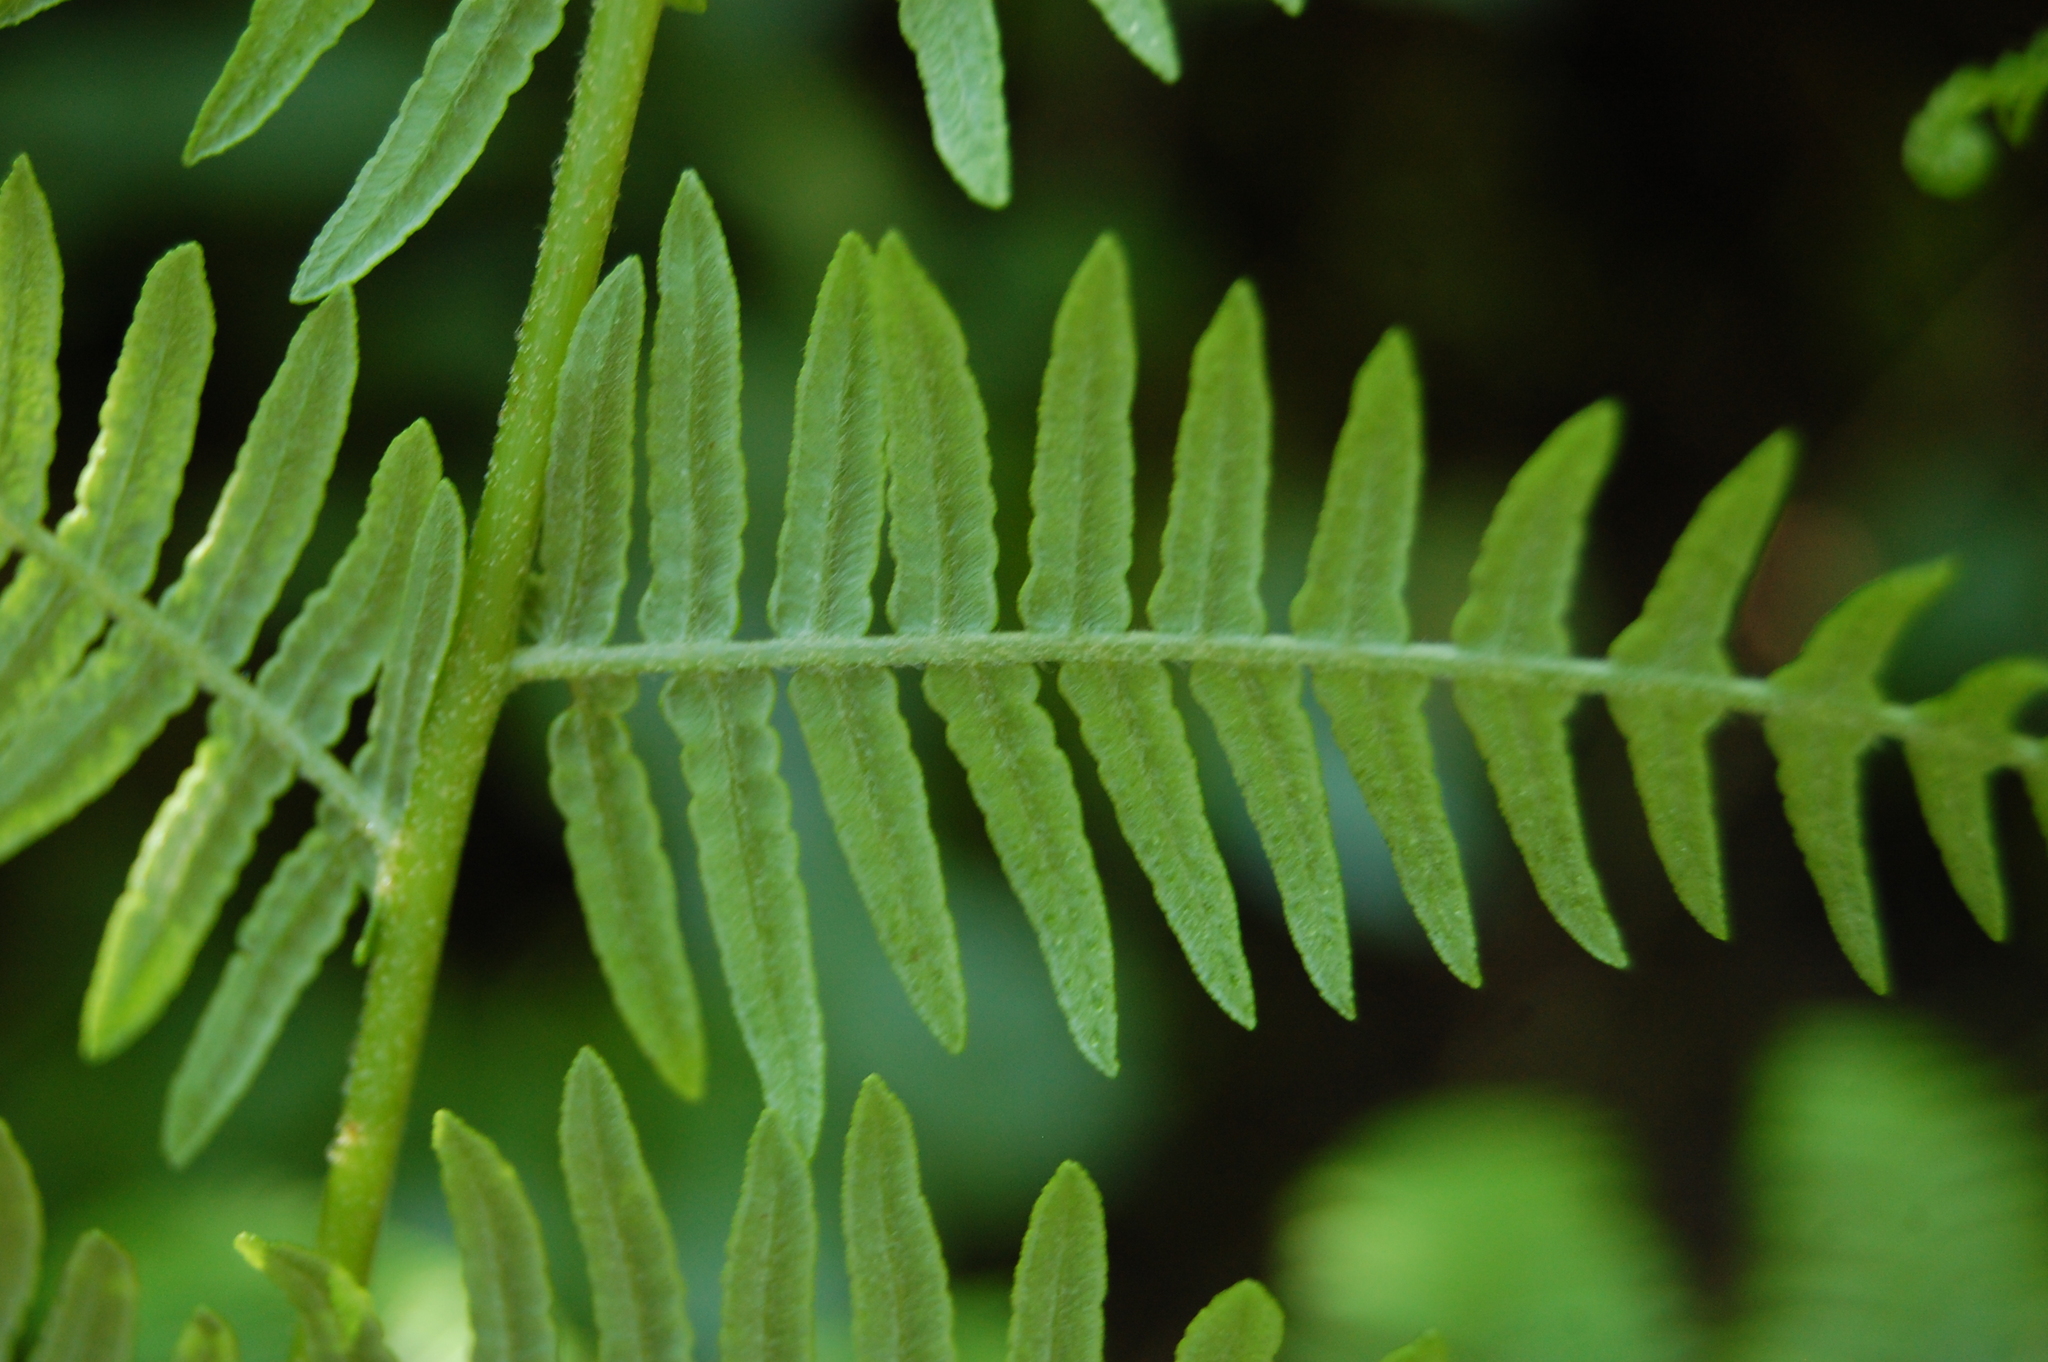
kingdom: Plantae
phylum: Tracheophyta
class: Polypodiopsida
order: Polypodiales
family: Dennstaedtiaceae
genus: Pteridium
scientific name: Pteridium aquilinum
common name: Bracken
